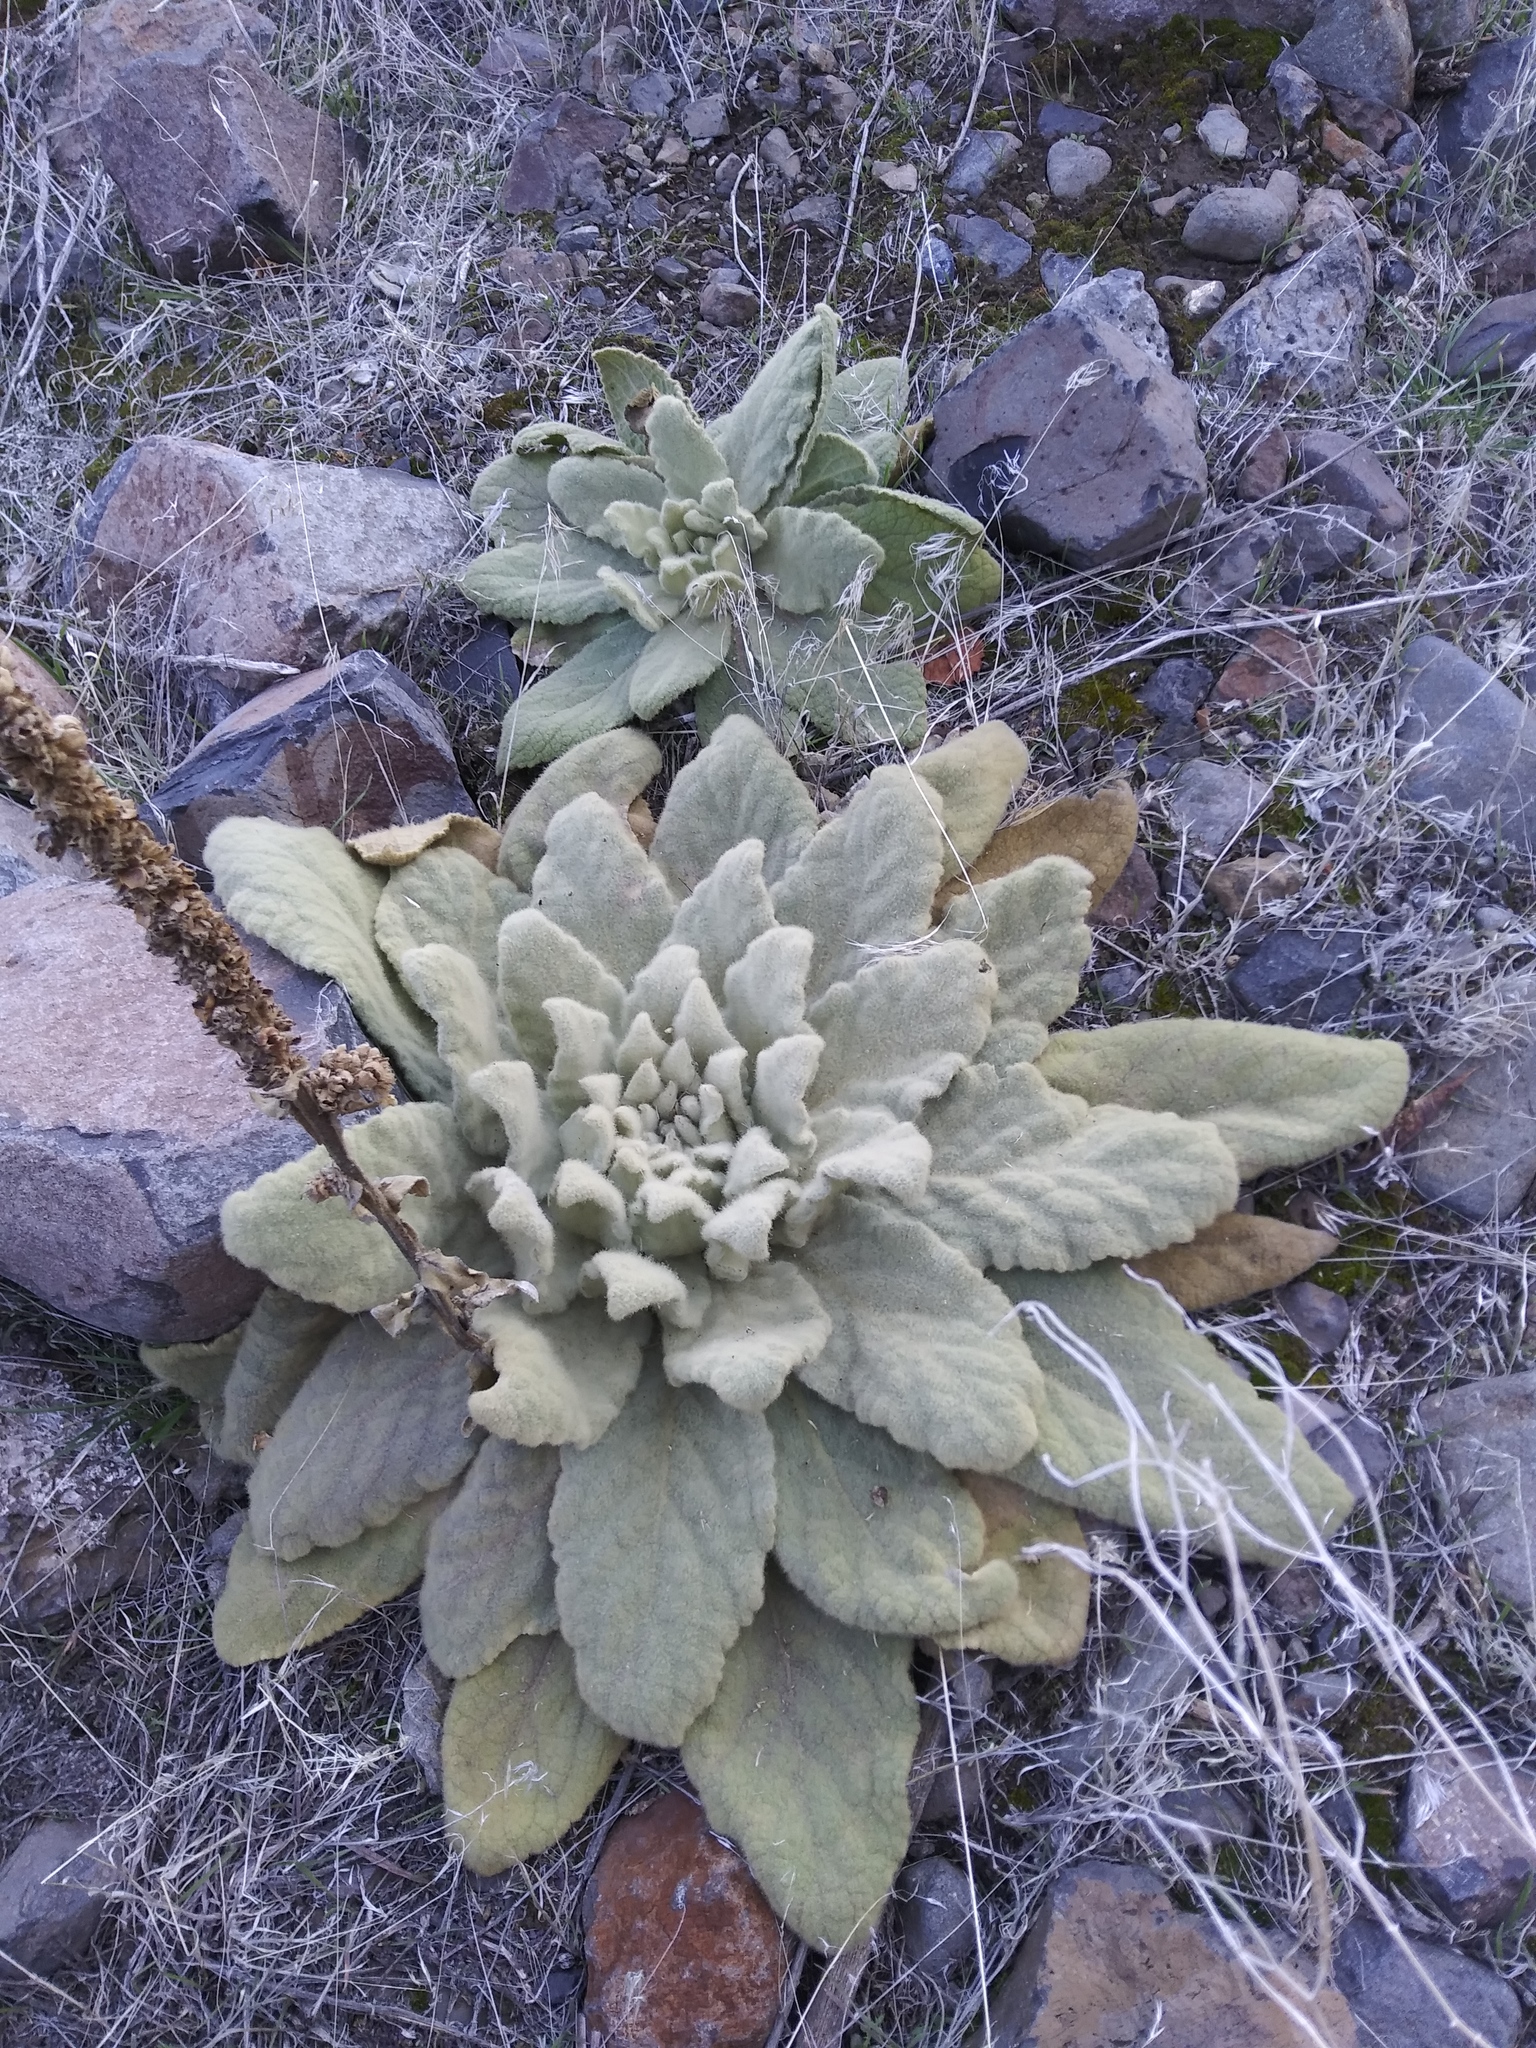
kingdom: Plantae
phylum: Tracheophyta
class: Magnoliopsida
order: Lamiales
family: Scrophulariaceae
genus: Verbascum
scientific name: Verbascum thapsus
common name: Common mullein
